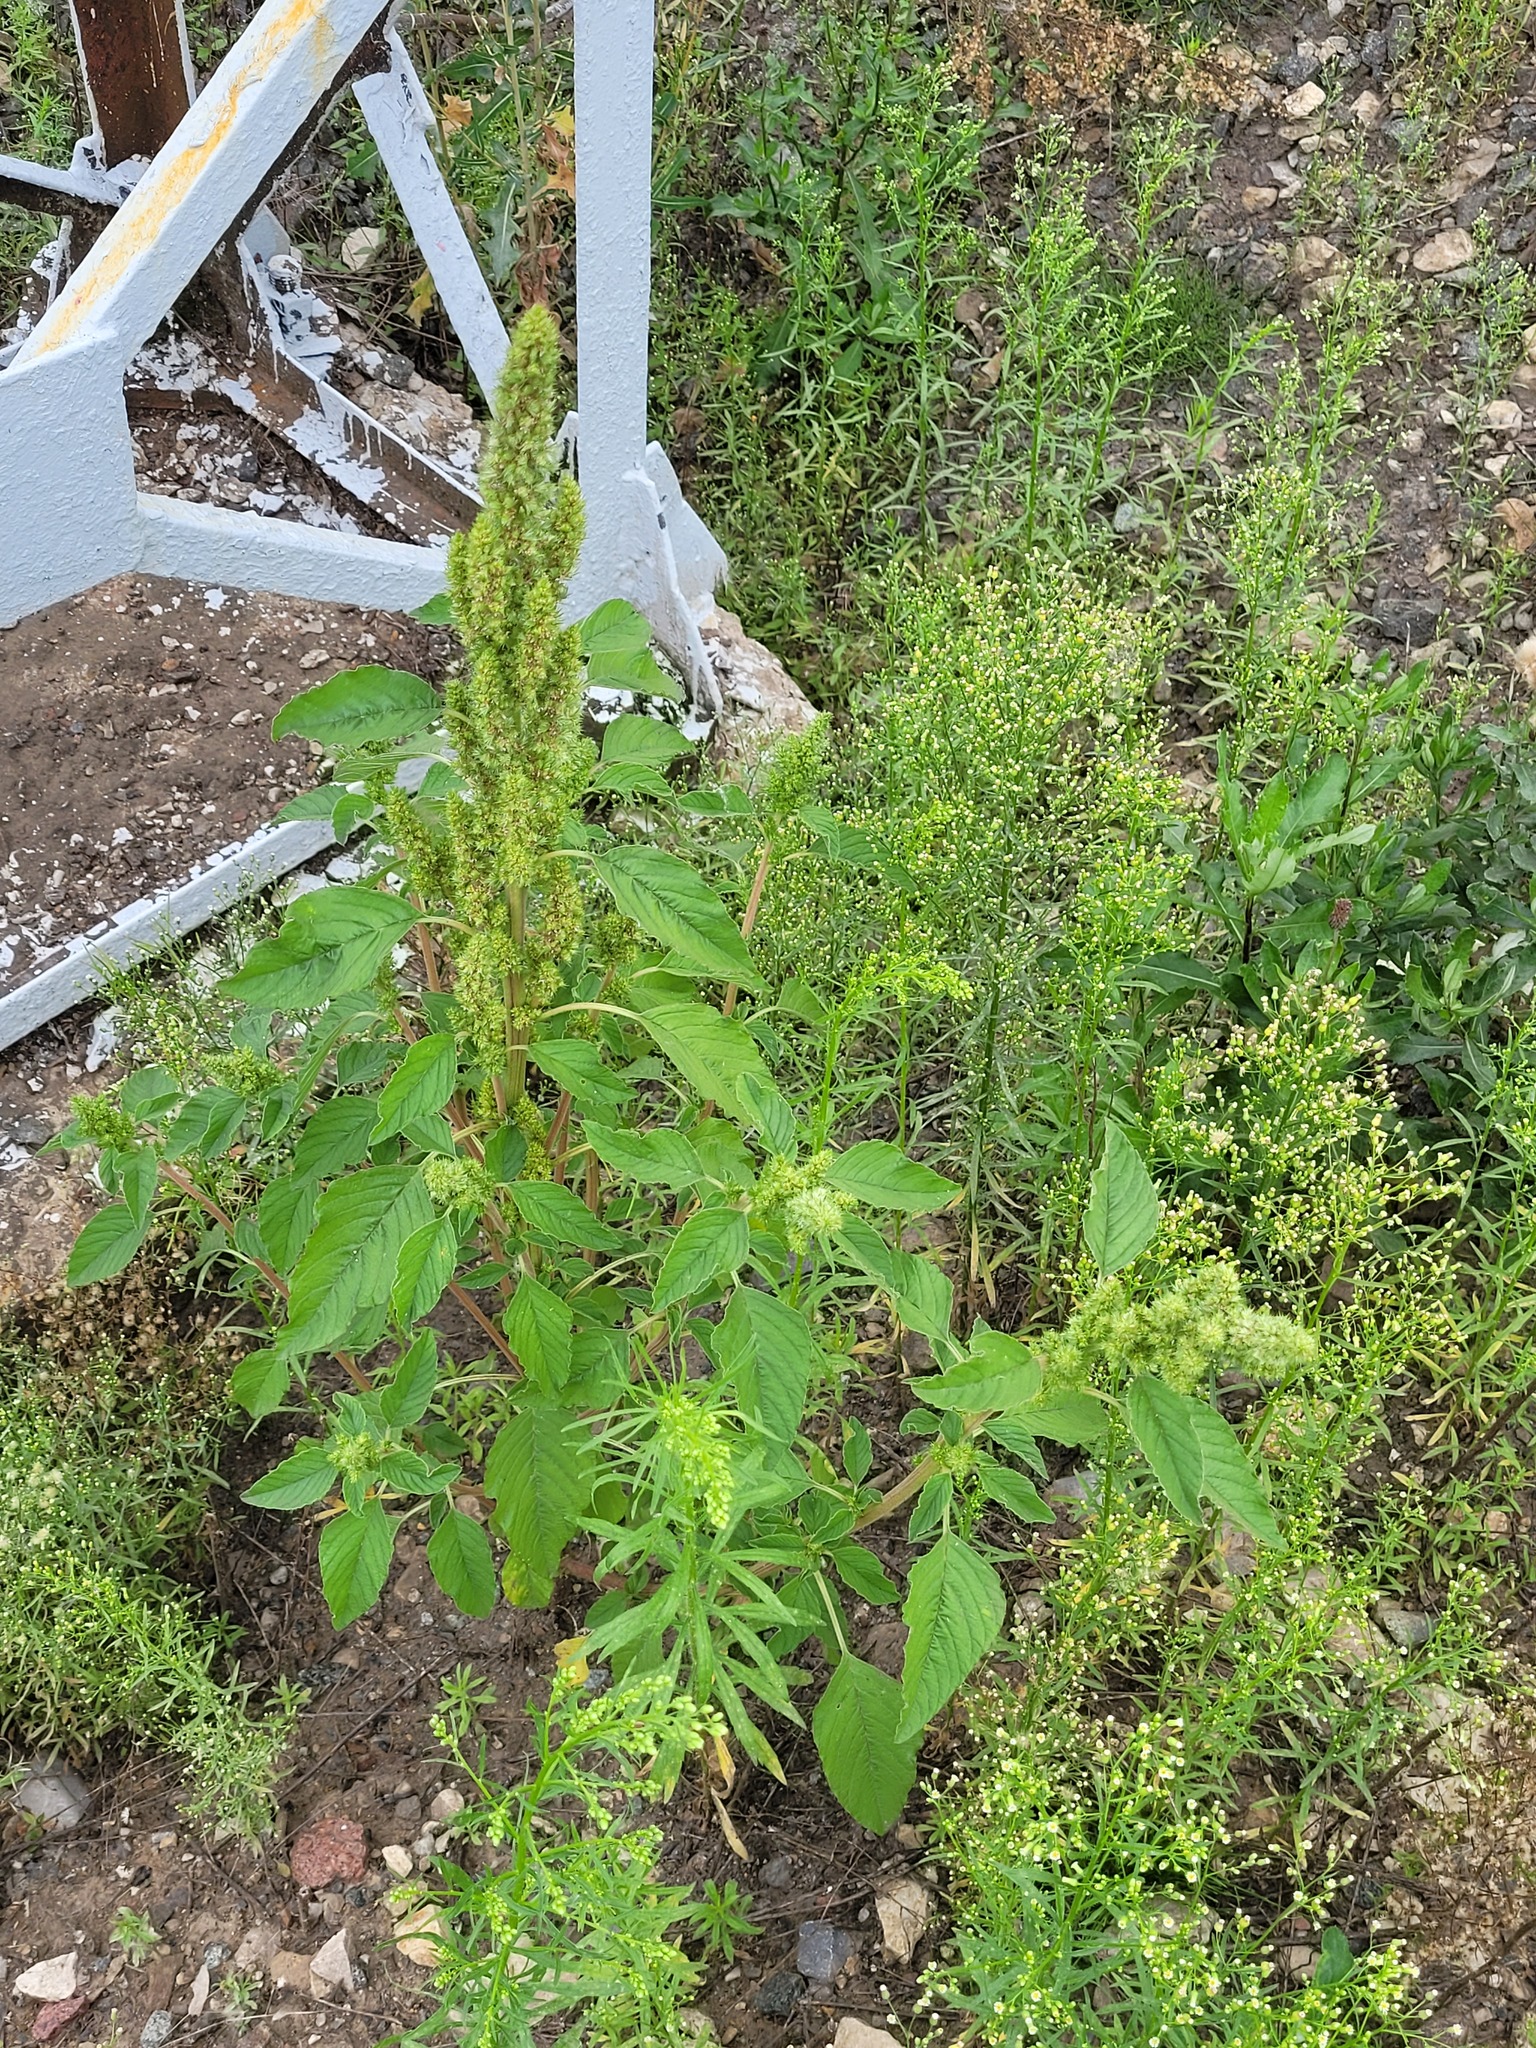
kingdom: Plantae
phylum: Tracheophyta
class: Magnoliopsida
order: Caryophyllales
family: Amaranthaceae
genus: Amaranthus
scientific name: Amaranthus retroflexus
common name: Redroot amaranth
